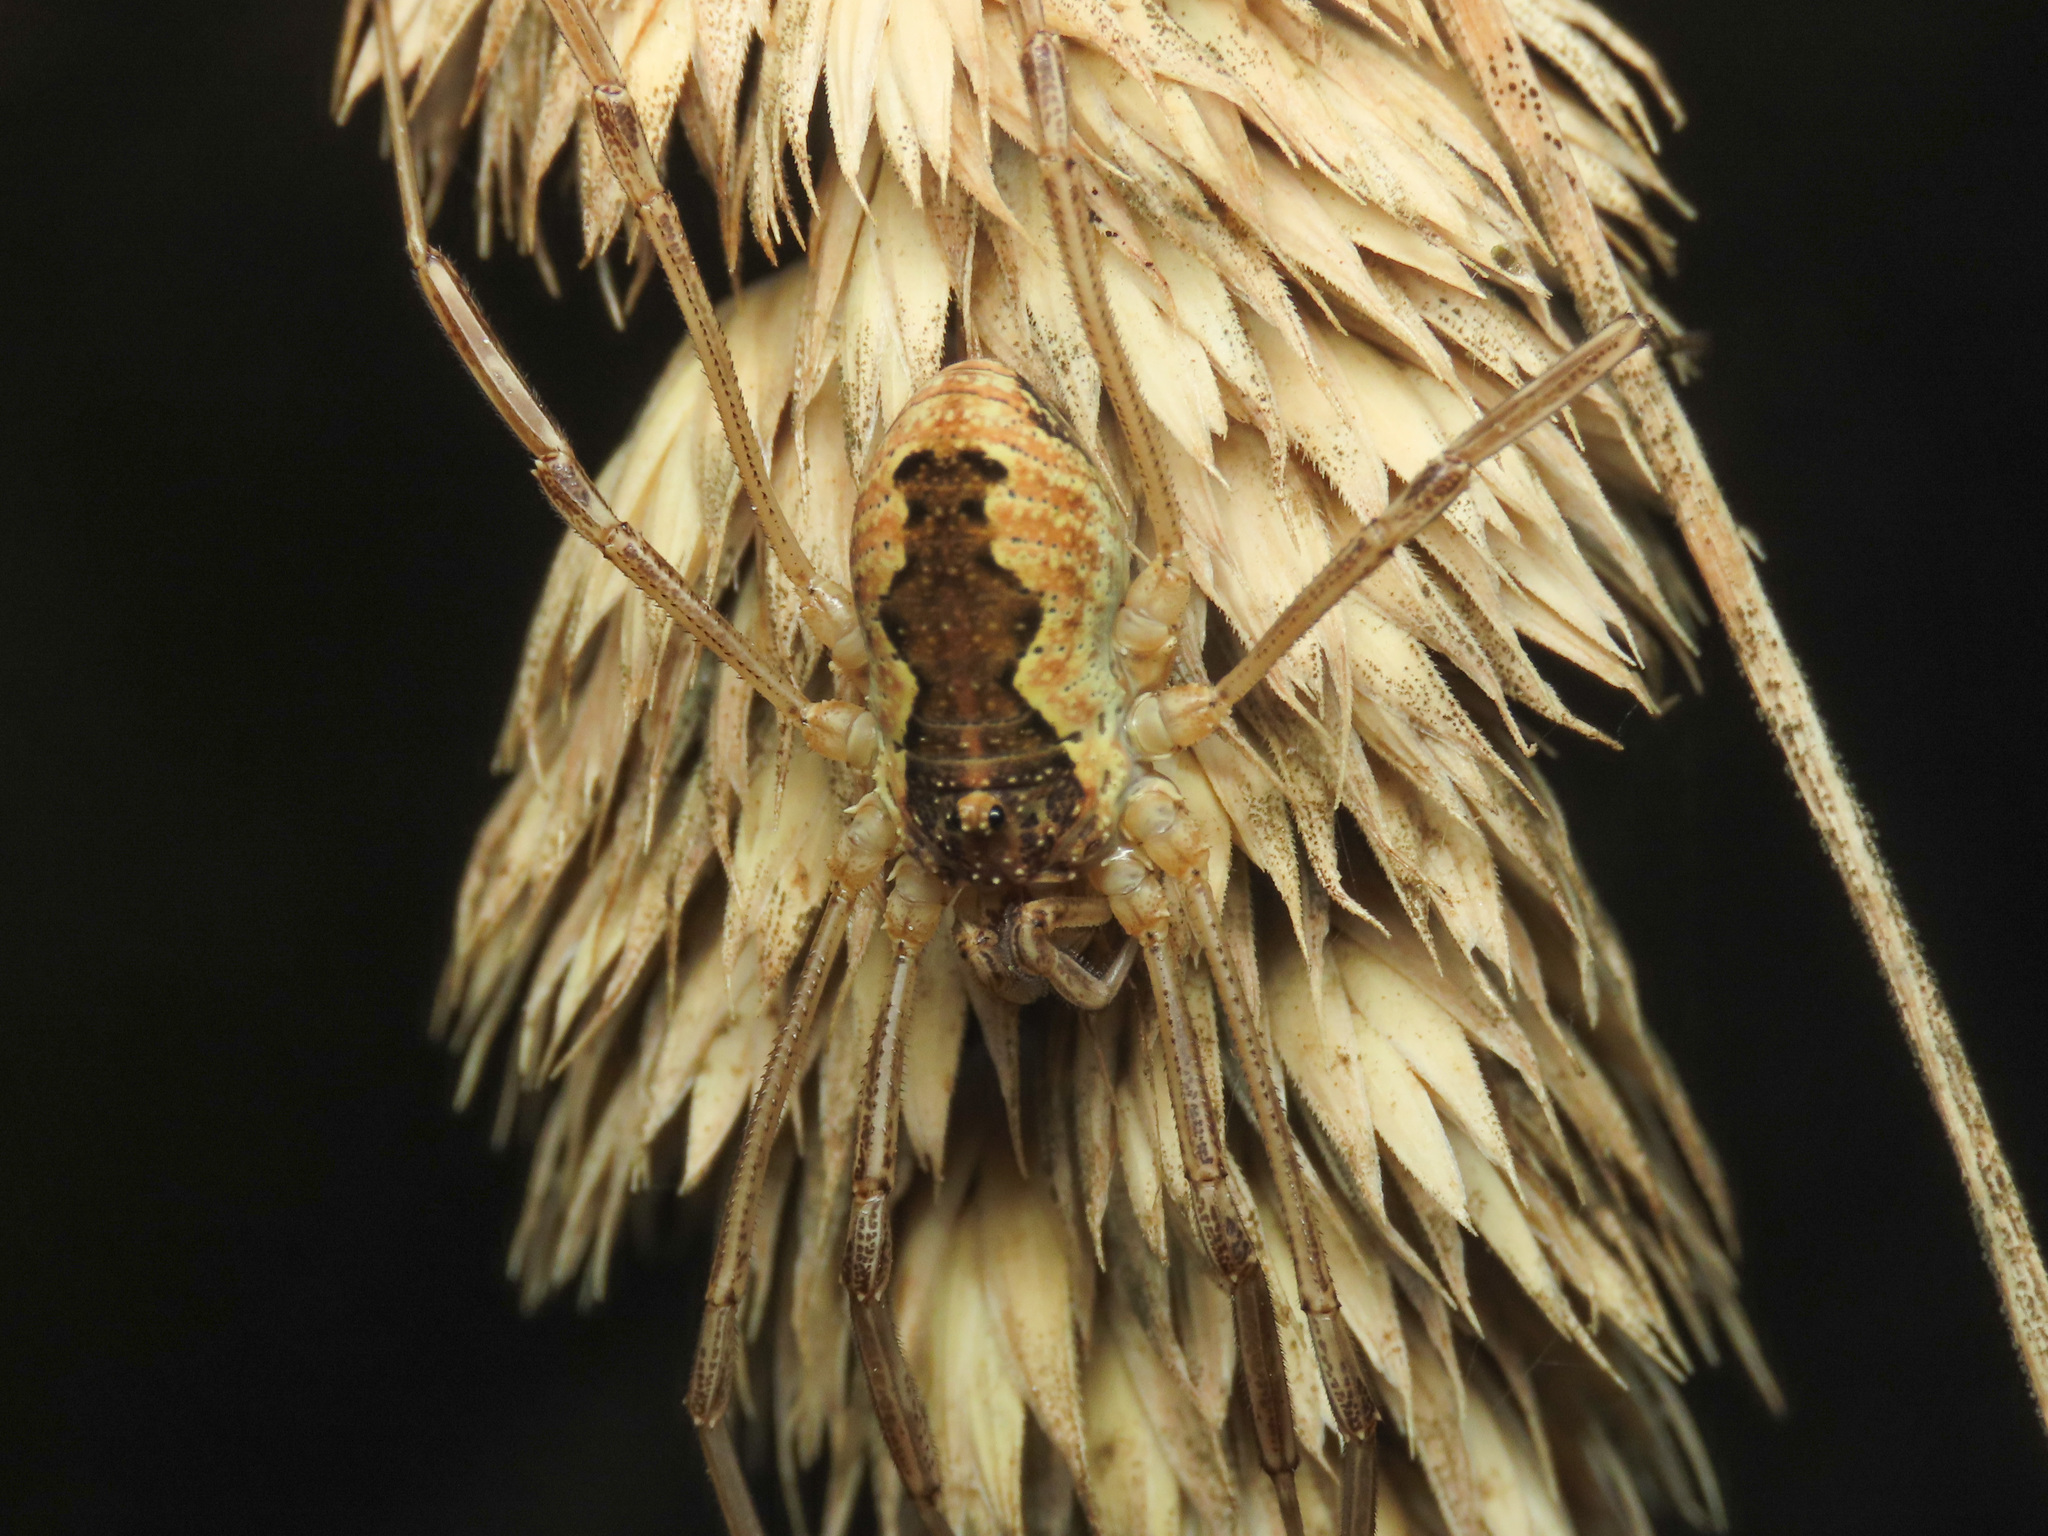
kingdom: Animalia
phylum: Arthropoda
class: Arachnida
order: Opiliones
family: Phalangiidae
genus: Mitopus
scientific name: Mitopus morio
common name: Saddleback harvestman
